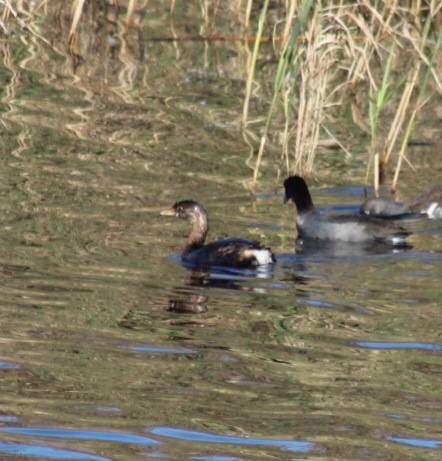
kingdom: Animalia
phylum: Chordata
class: Aves
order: Podicipediformes
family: Podicipedidae
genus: Podilymbus
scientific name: Podilymbus podiceps
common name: Pied-billed grebe
